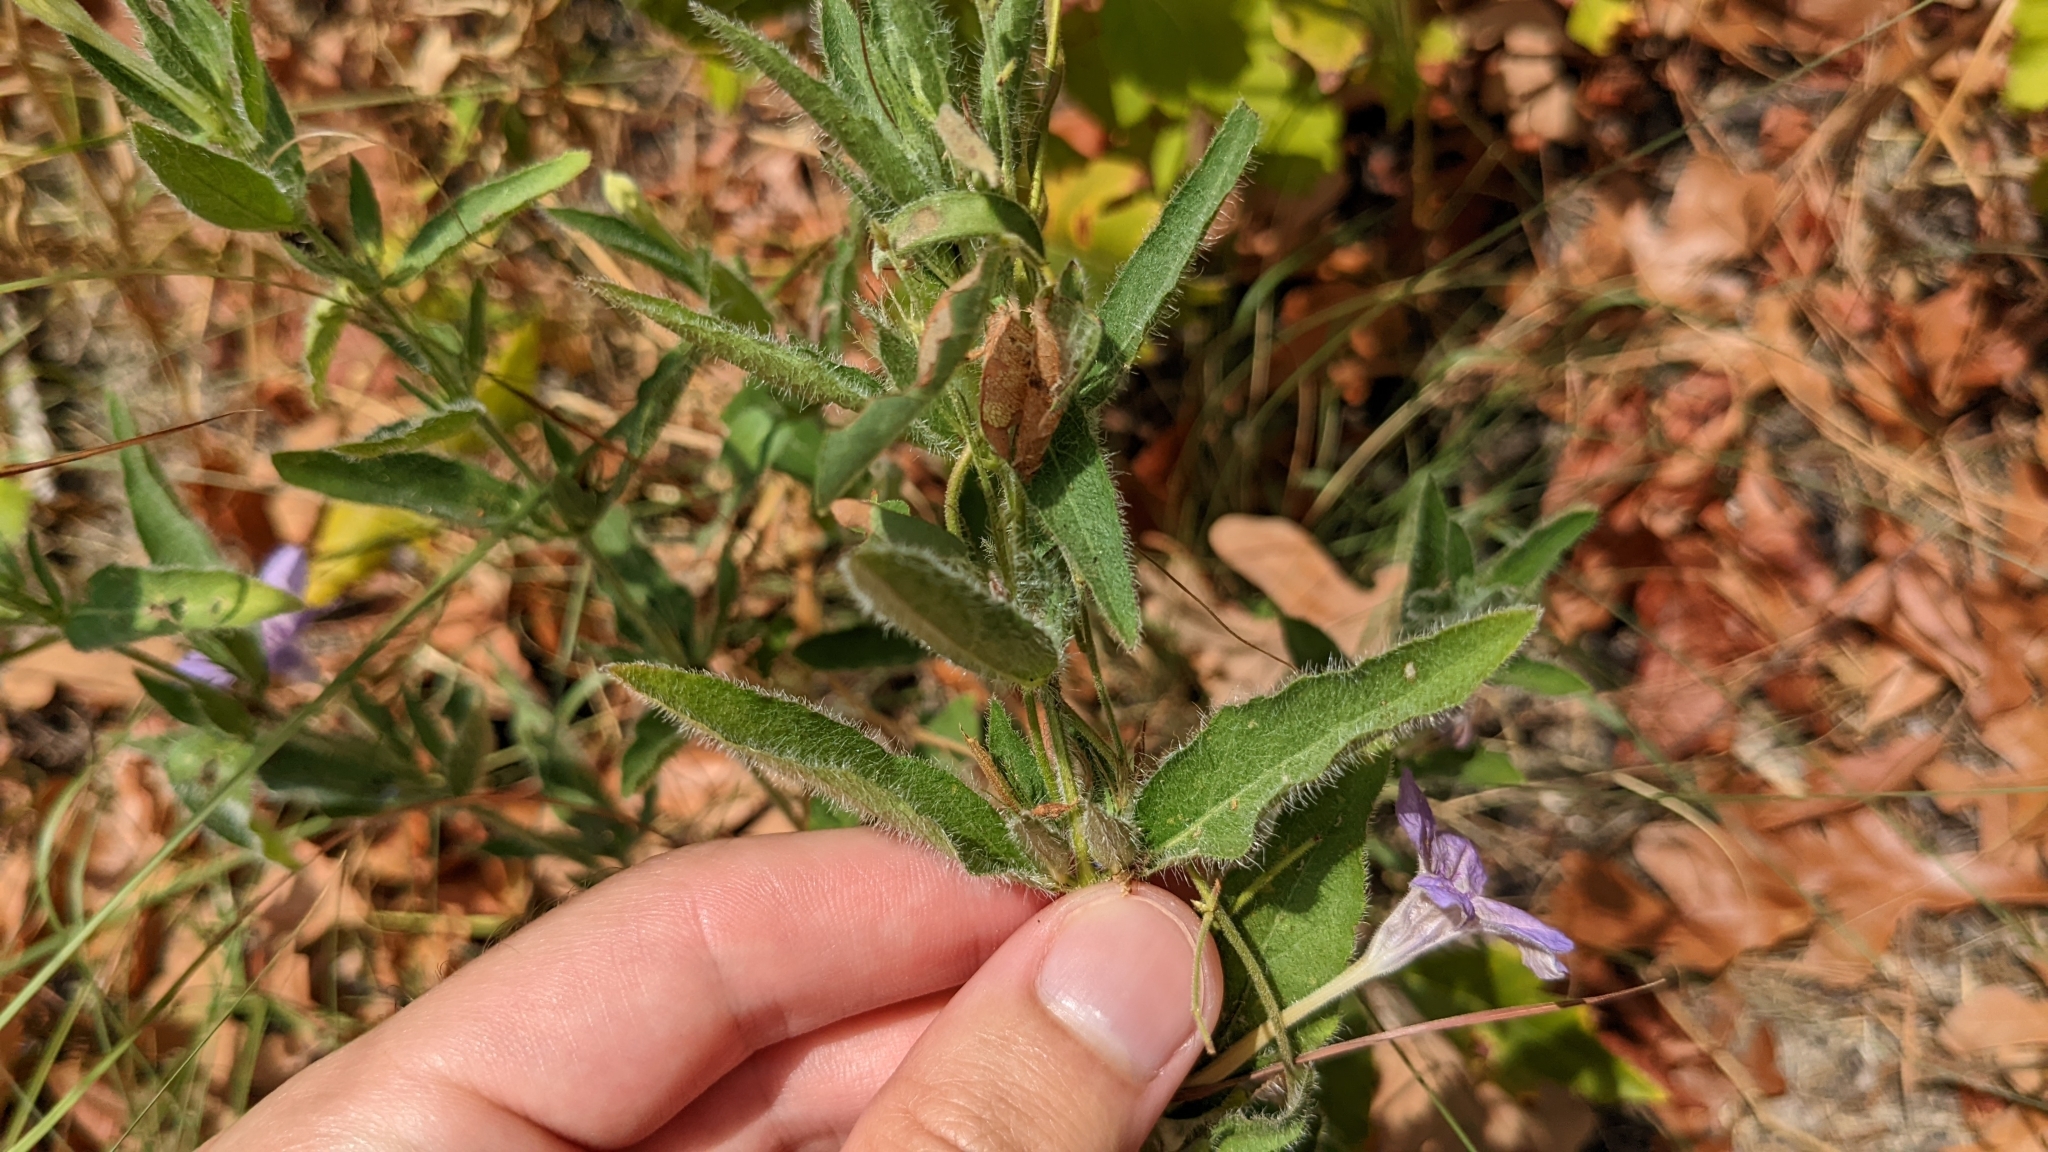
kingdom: Plantae
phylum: Tracheophyta
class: Magnoliopsida
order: Lamiales
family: Acanthaceae
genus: Ruellia
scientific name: Ruellia humilis
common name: Fringe-leaf ruellia
